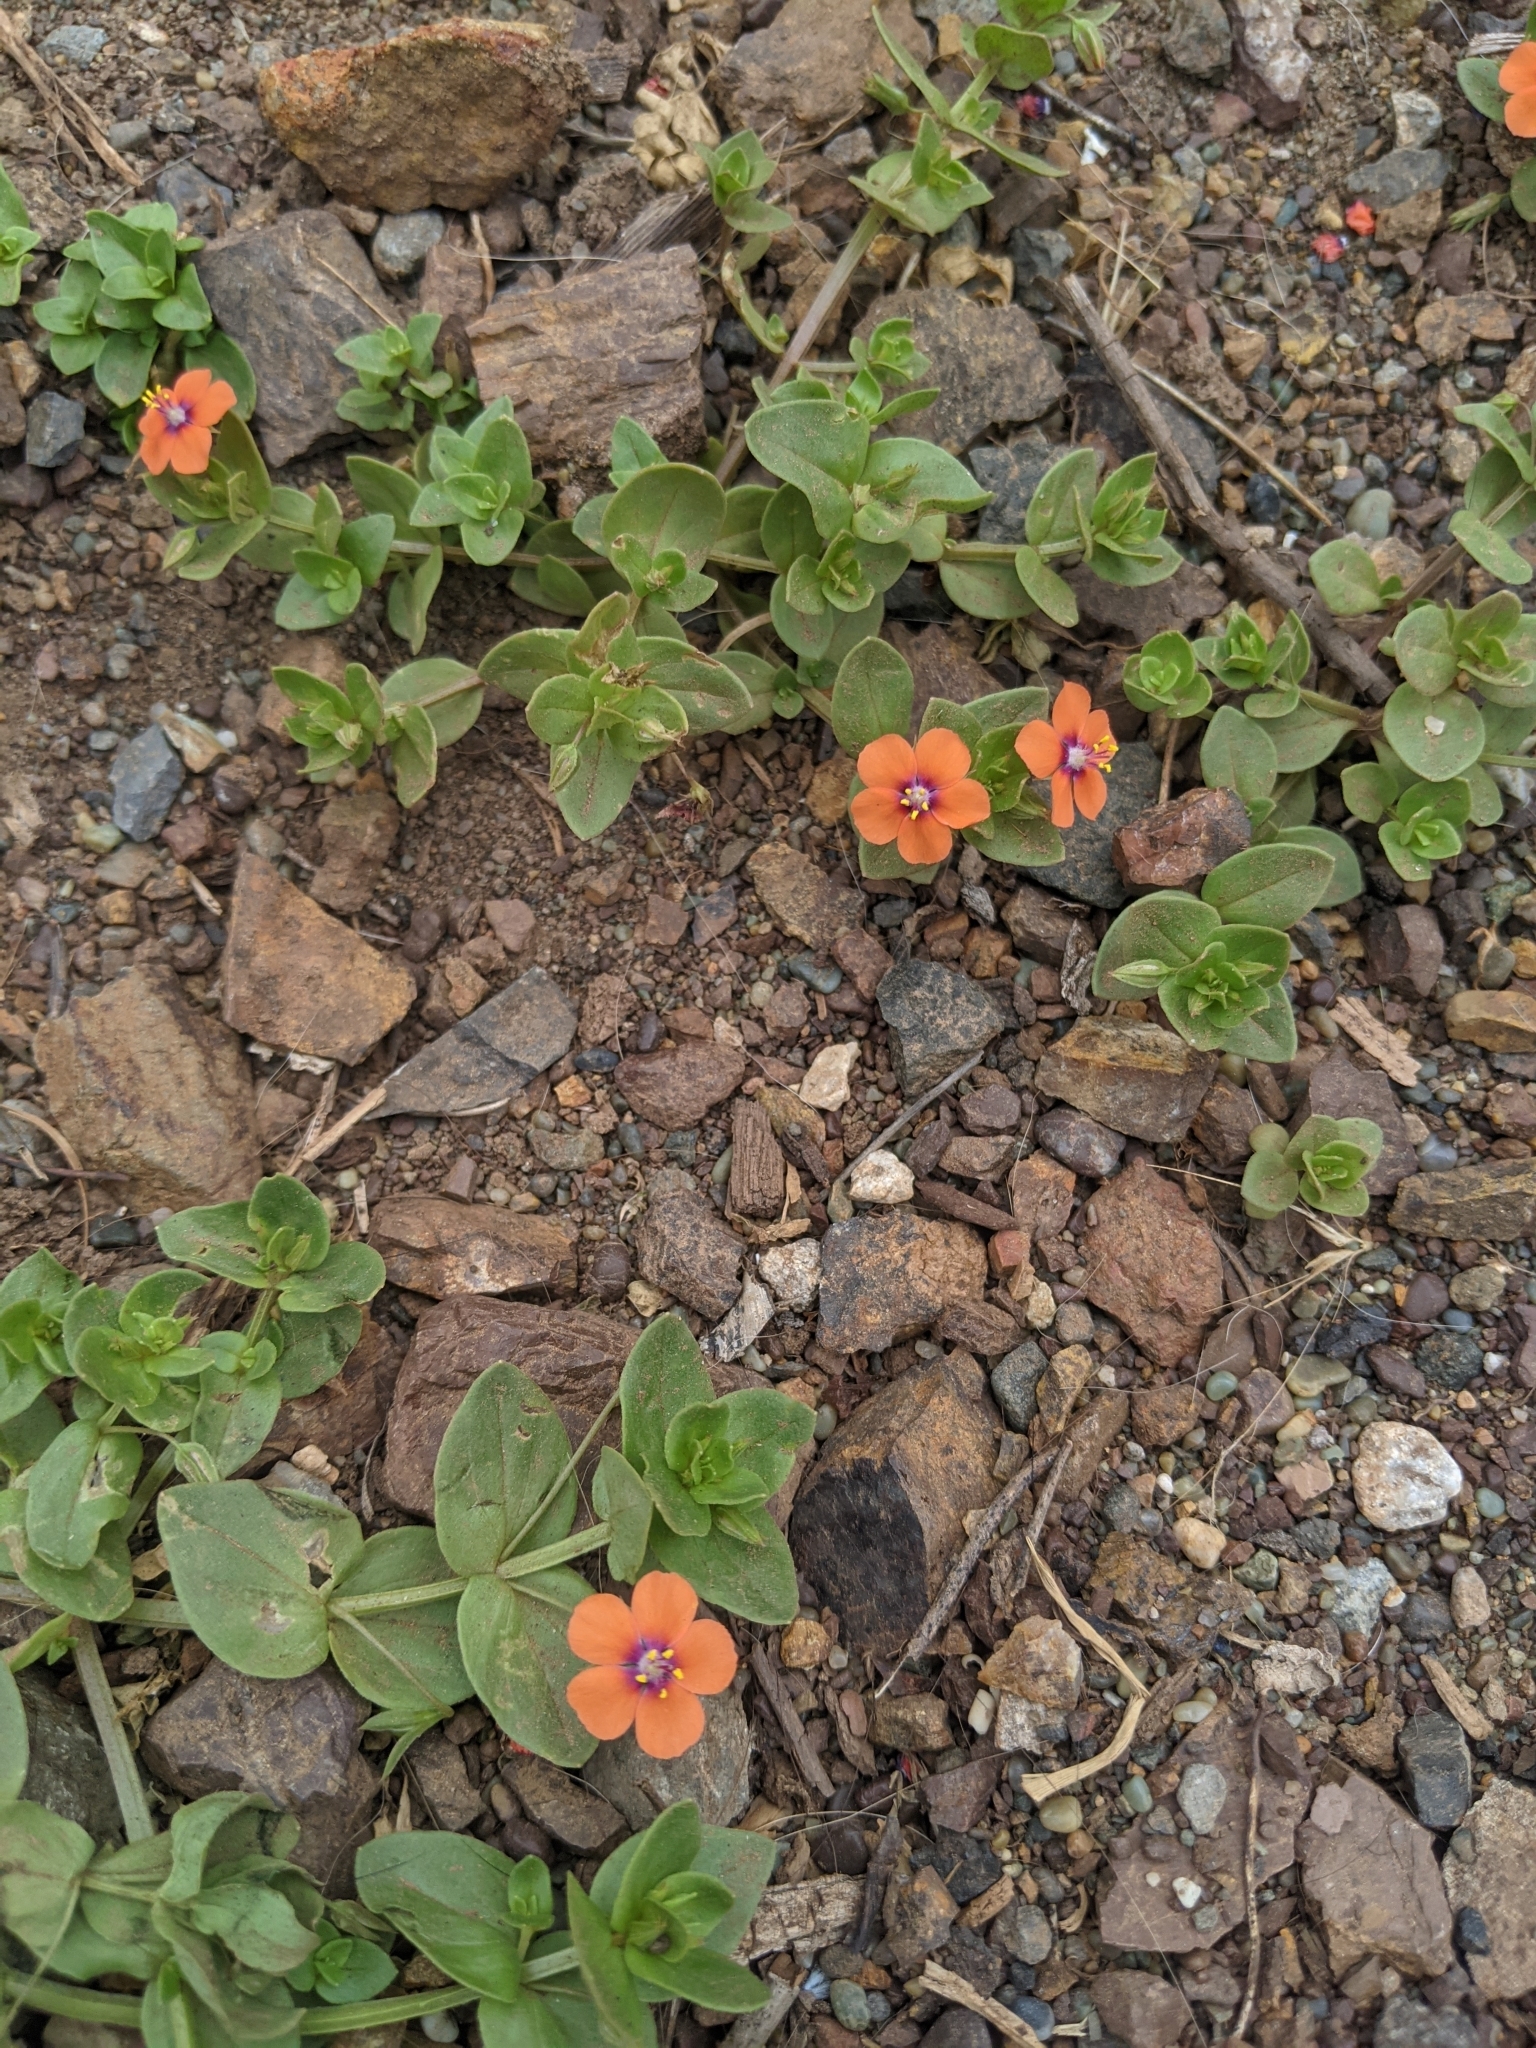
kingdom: Plantae
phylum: Tracheophyta
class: Magnoliopsida
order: Ericales
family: Primulaceae
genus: Lysimachia
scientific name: Lysimachia arvensis
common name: Scarlet pimpernel
